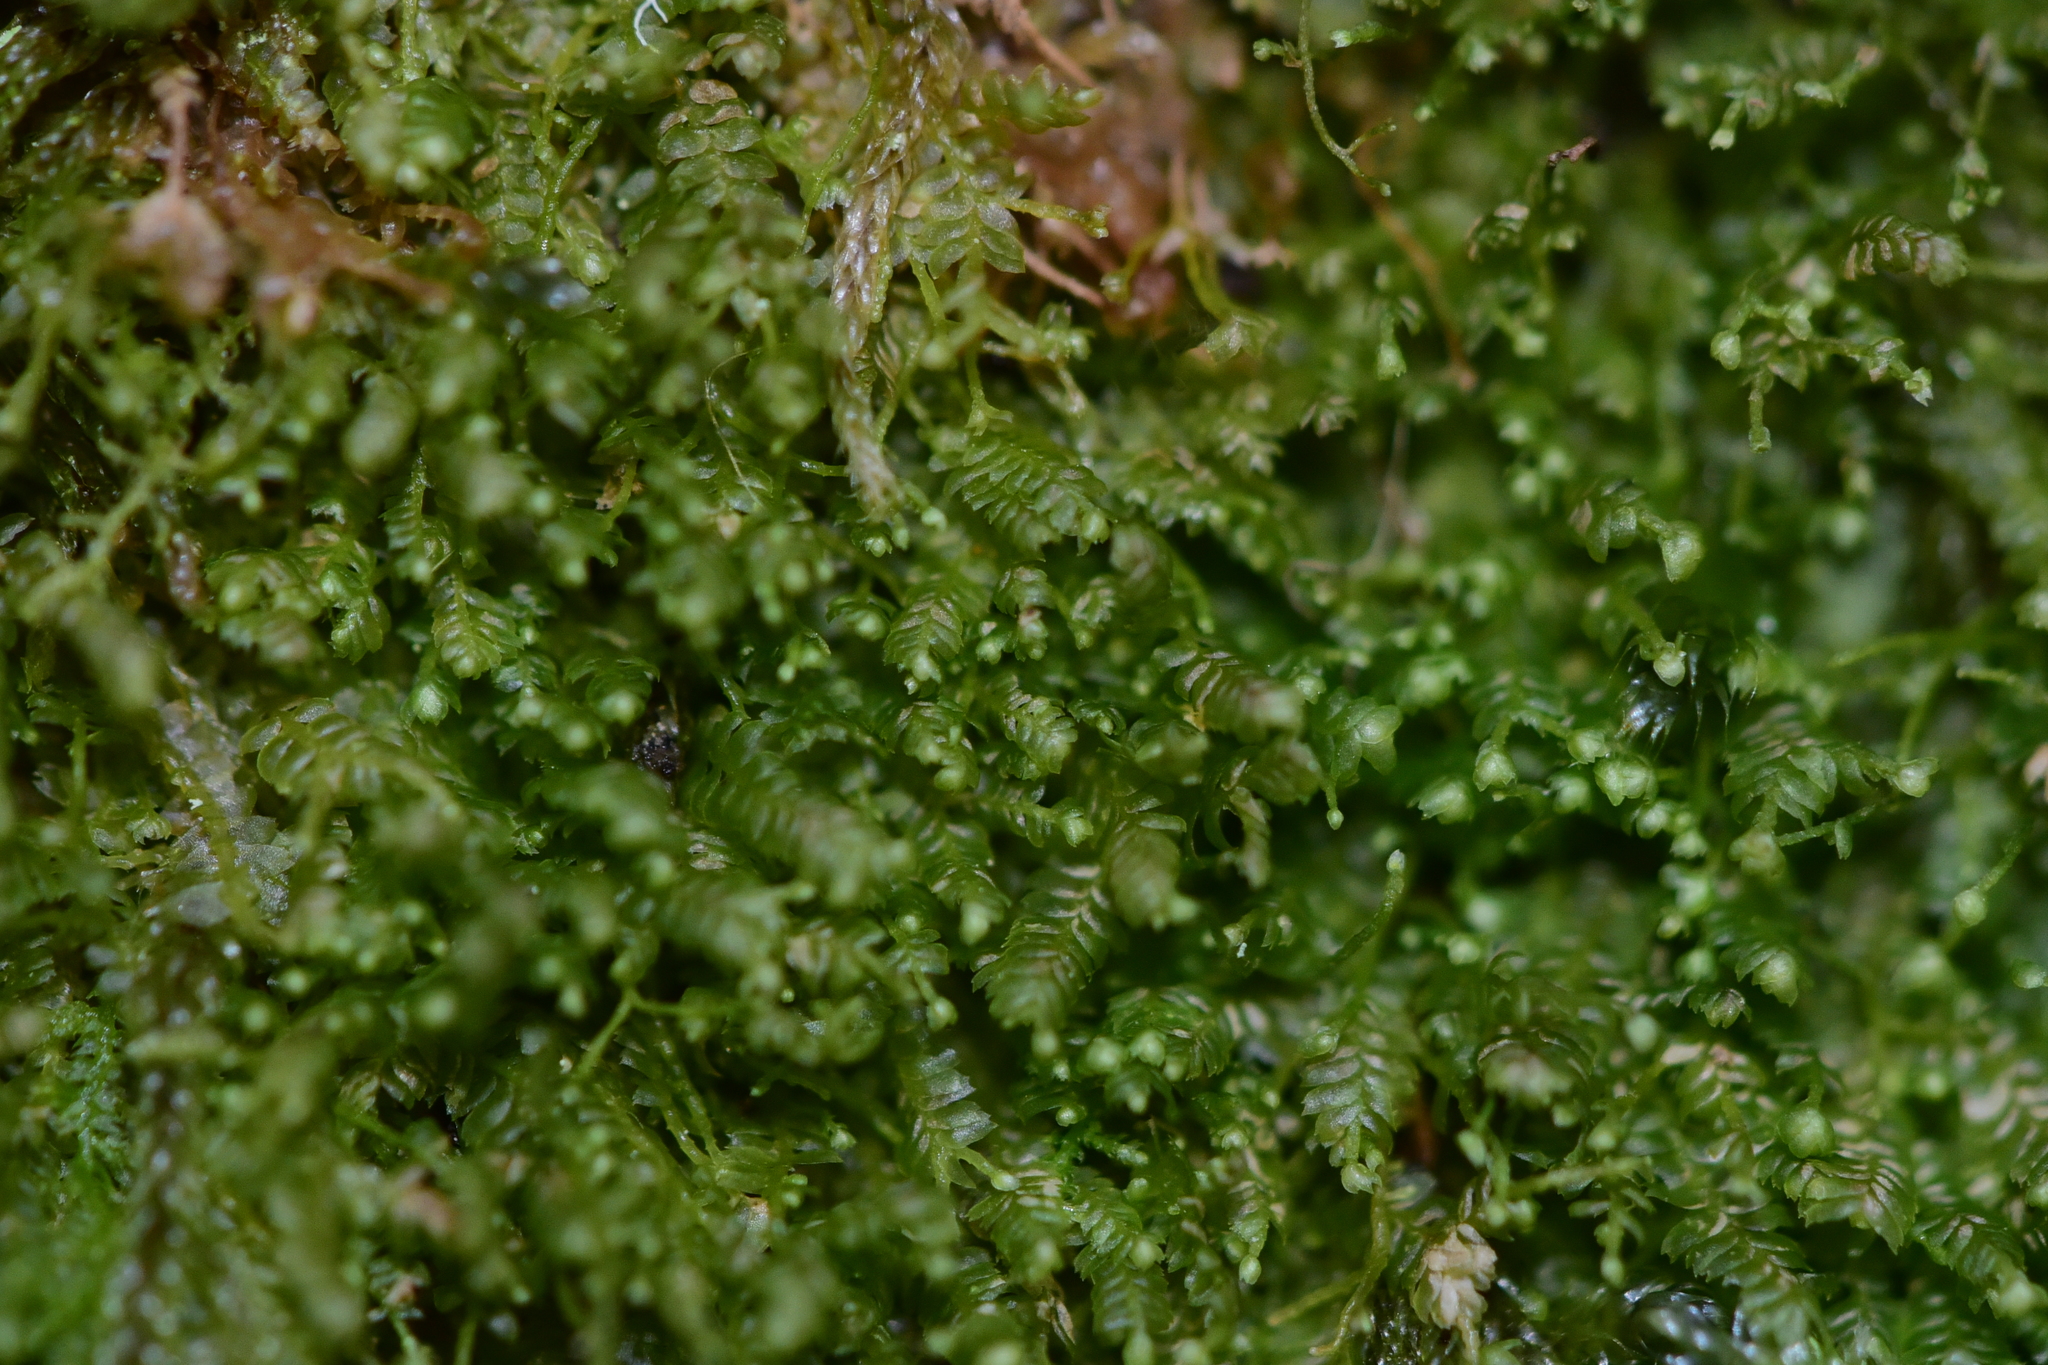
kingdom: Plantae
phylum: Marchantiophyta
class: Jungermanniopsida
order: Jungermanniales
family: Lepidoziaceae
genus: Bazzania
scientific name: Bazzania denudata
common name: Naked whipwort
